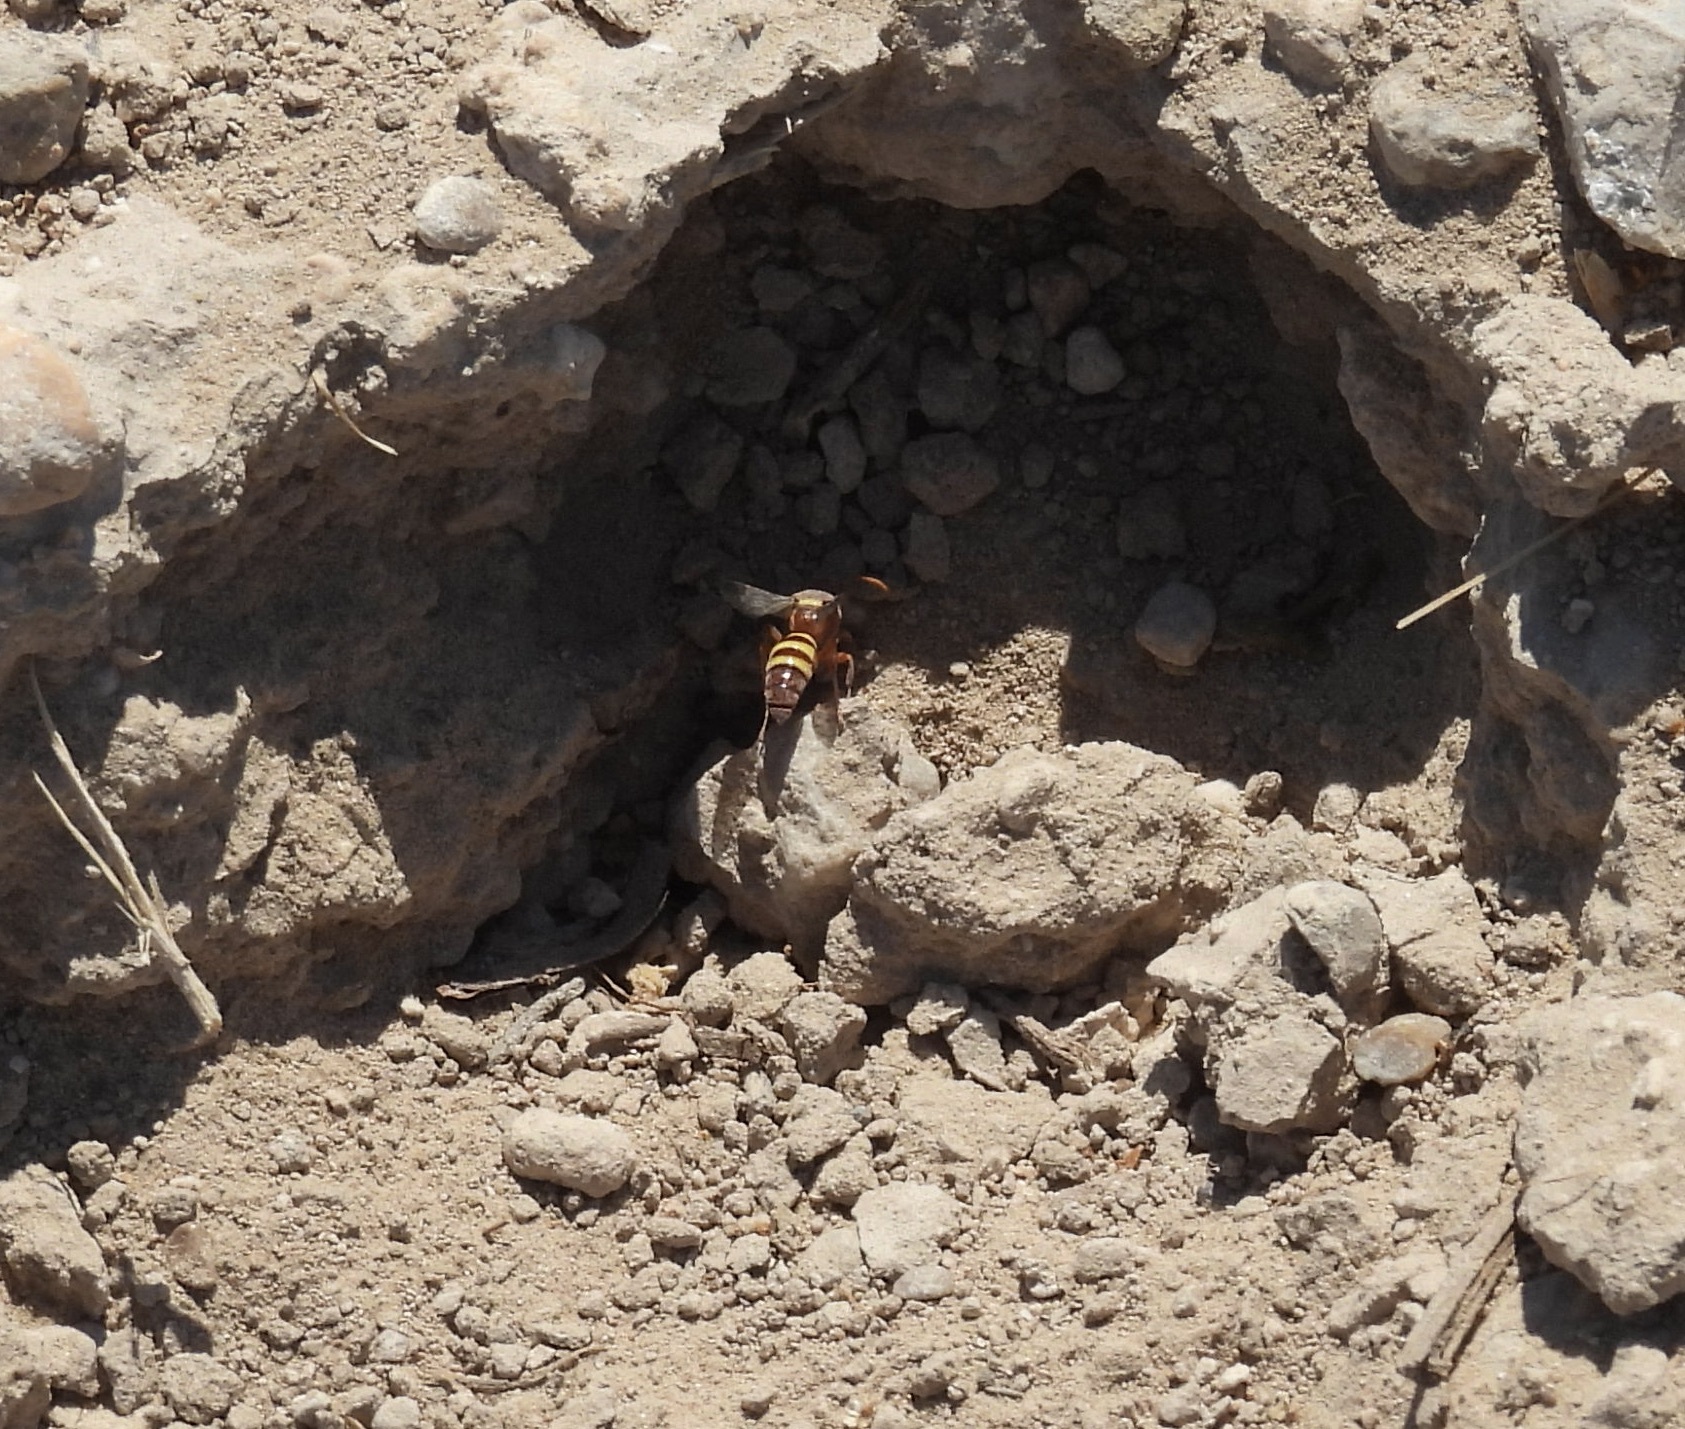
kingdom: Animalia
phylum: Arthropoda
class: Insecta
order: Hymenoptera
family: Crabronidae
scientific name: Crabronidae
